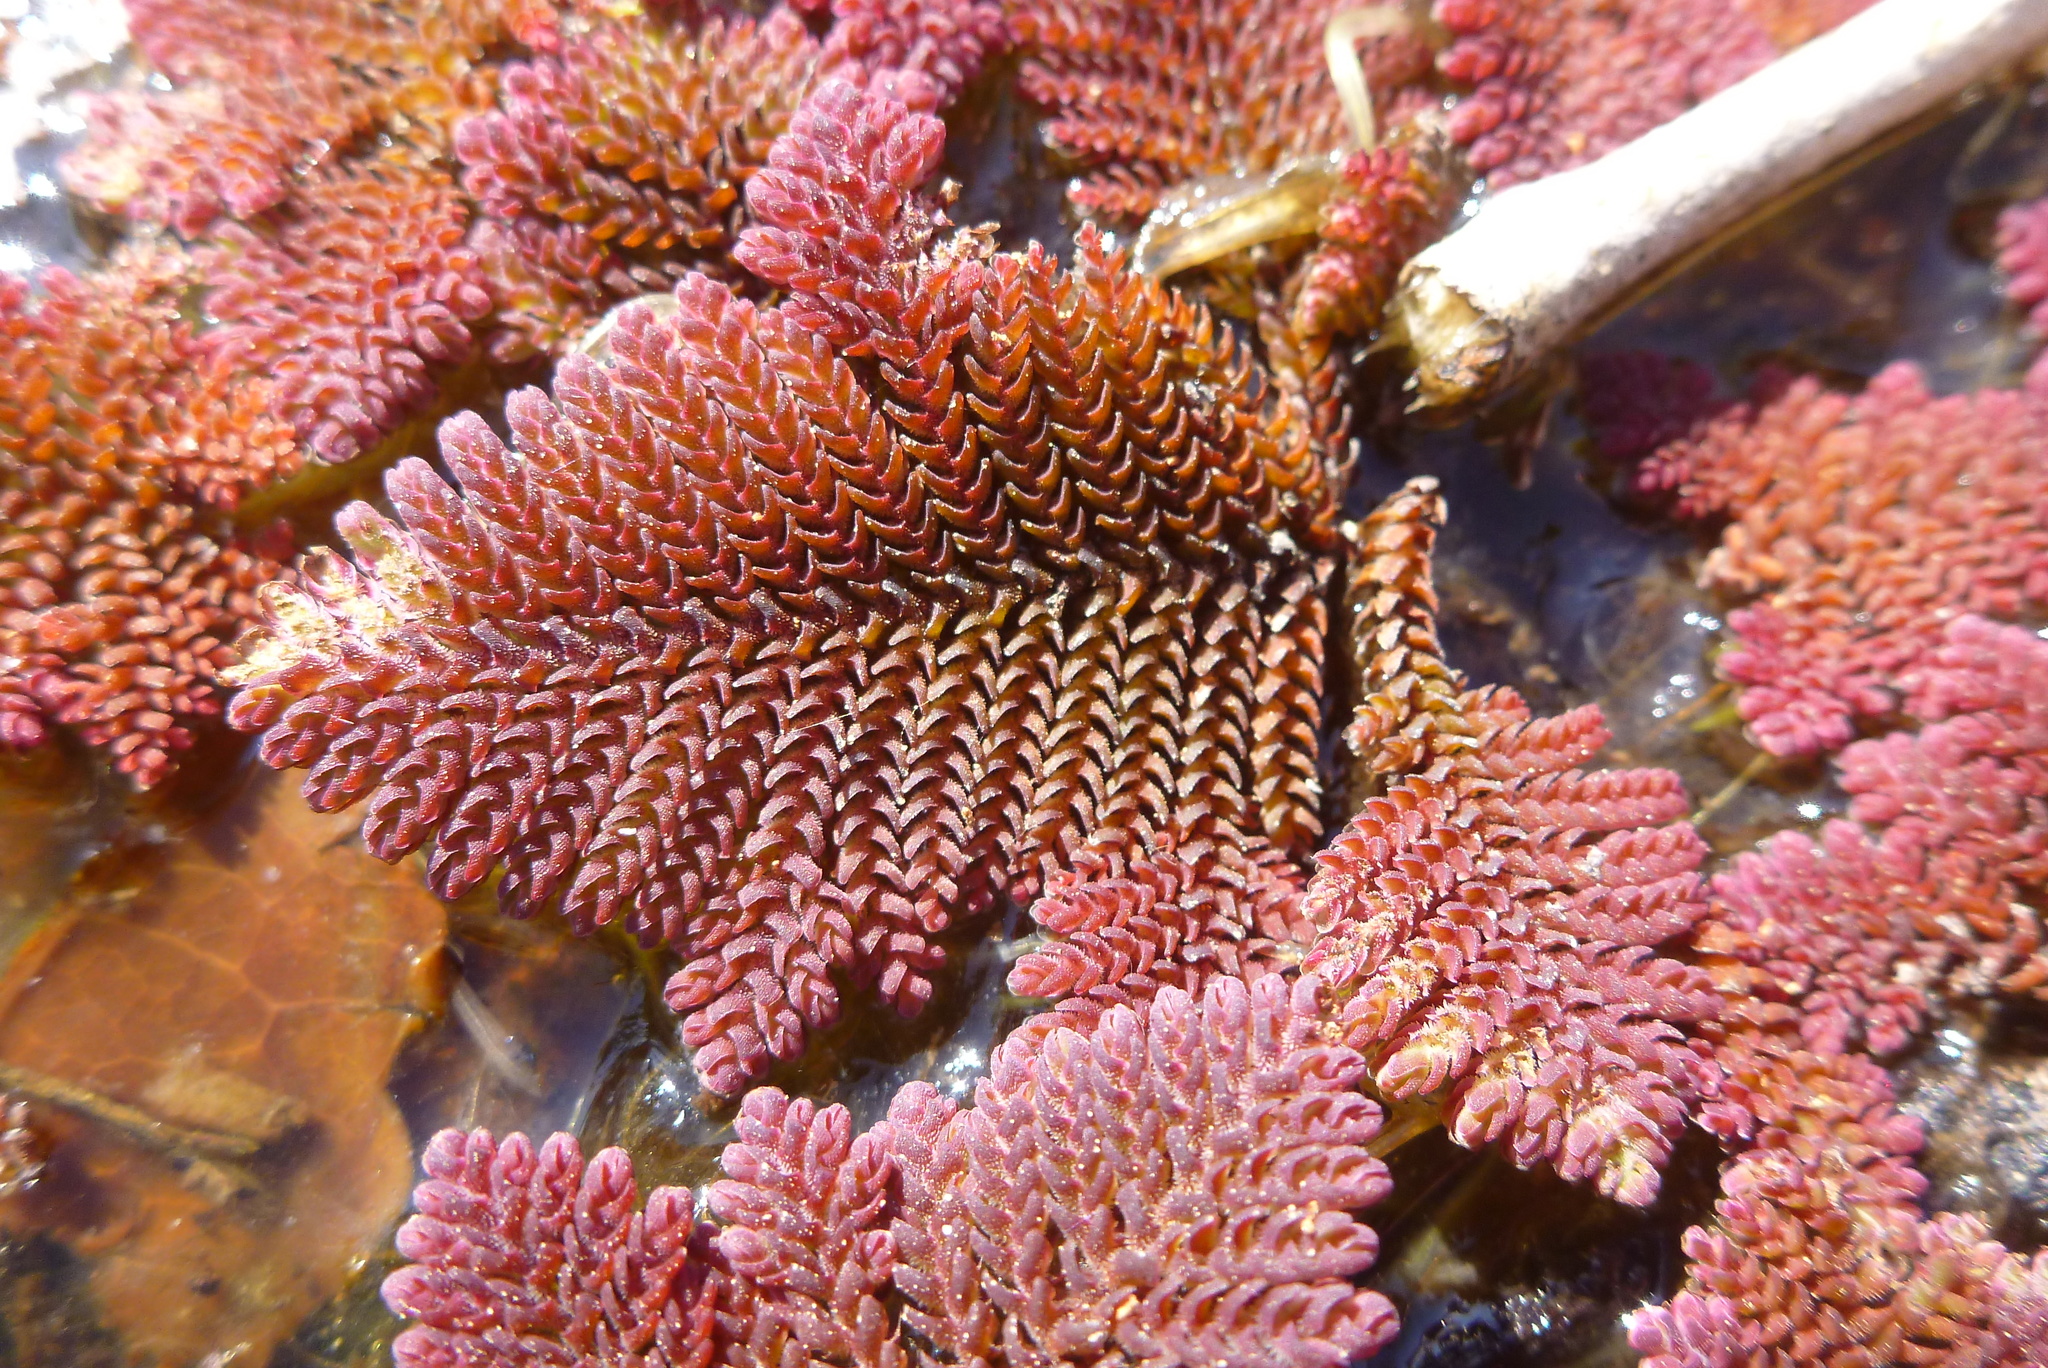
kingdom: Plantae
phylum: Tracheophyta
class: Polypodiopsida
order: Salviniales
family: Salviniaceae
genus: Azolla
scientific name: Azolla pinnata
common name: Ferny azolla
